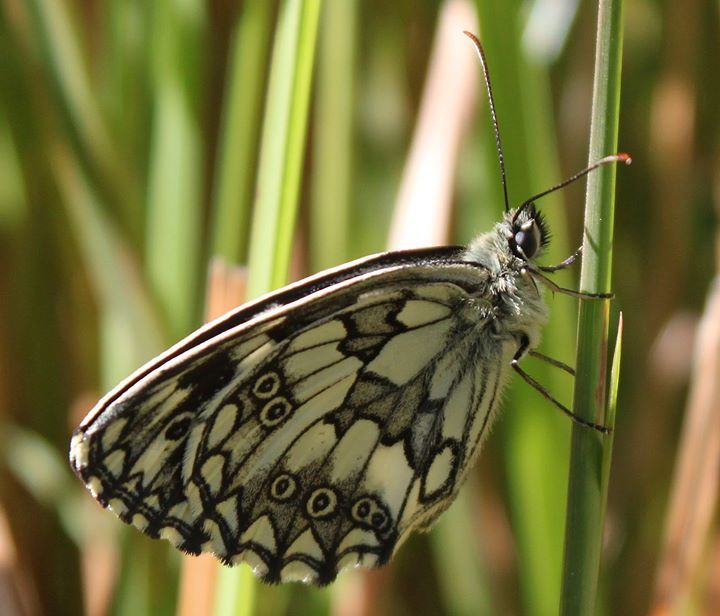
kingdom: Animalia
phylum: Arthropoda
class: Insecta
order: Lepidoptera
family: Nymphalidae
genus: Melanargia
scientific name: Melanargia galathea
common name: Marbled white
